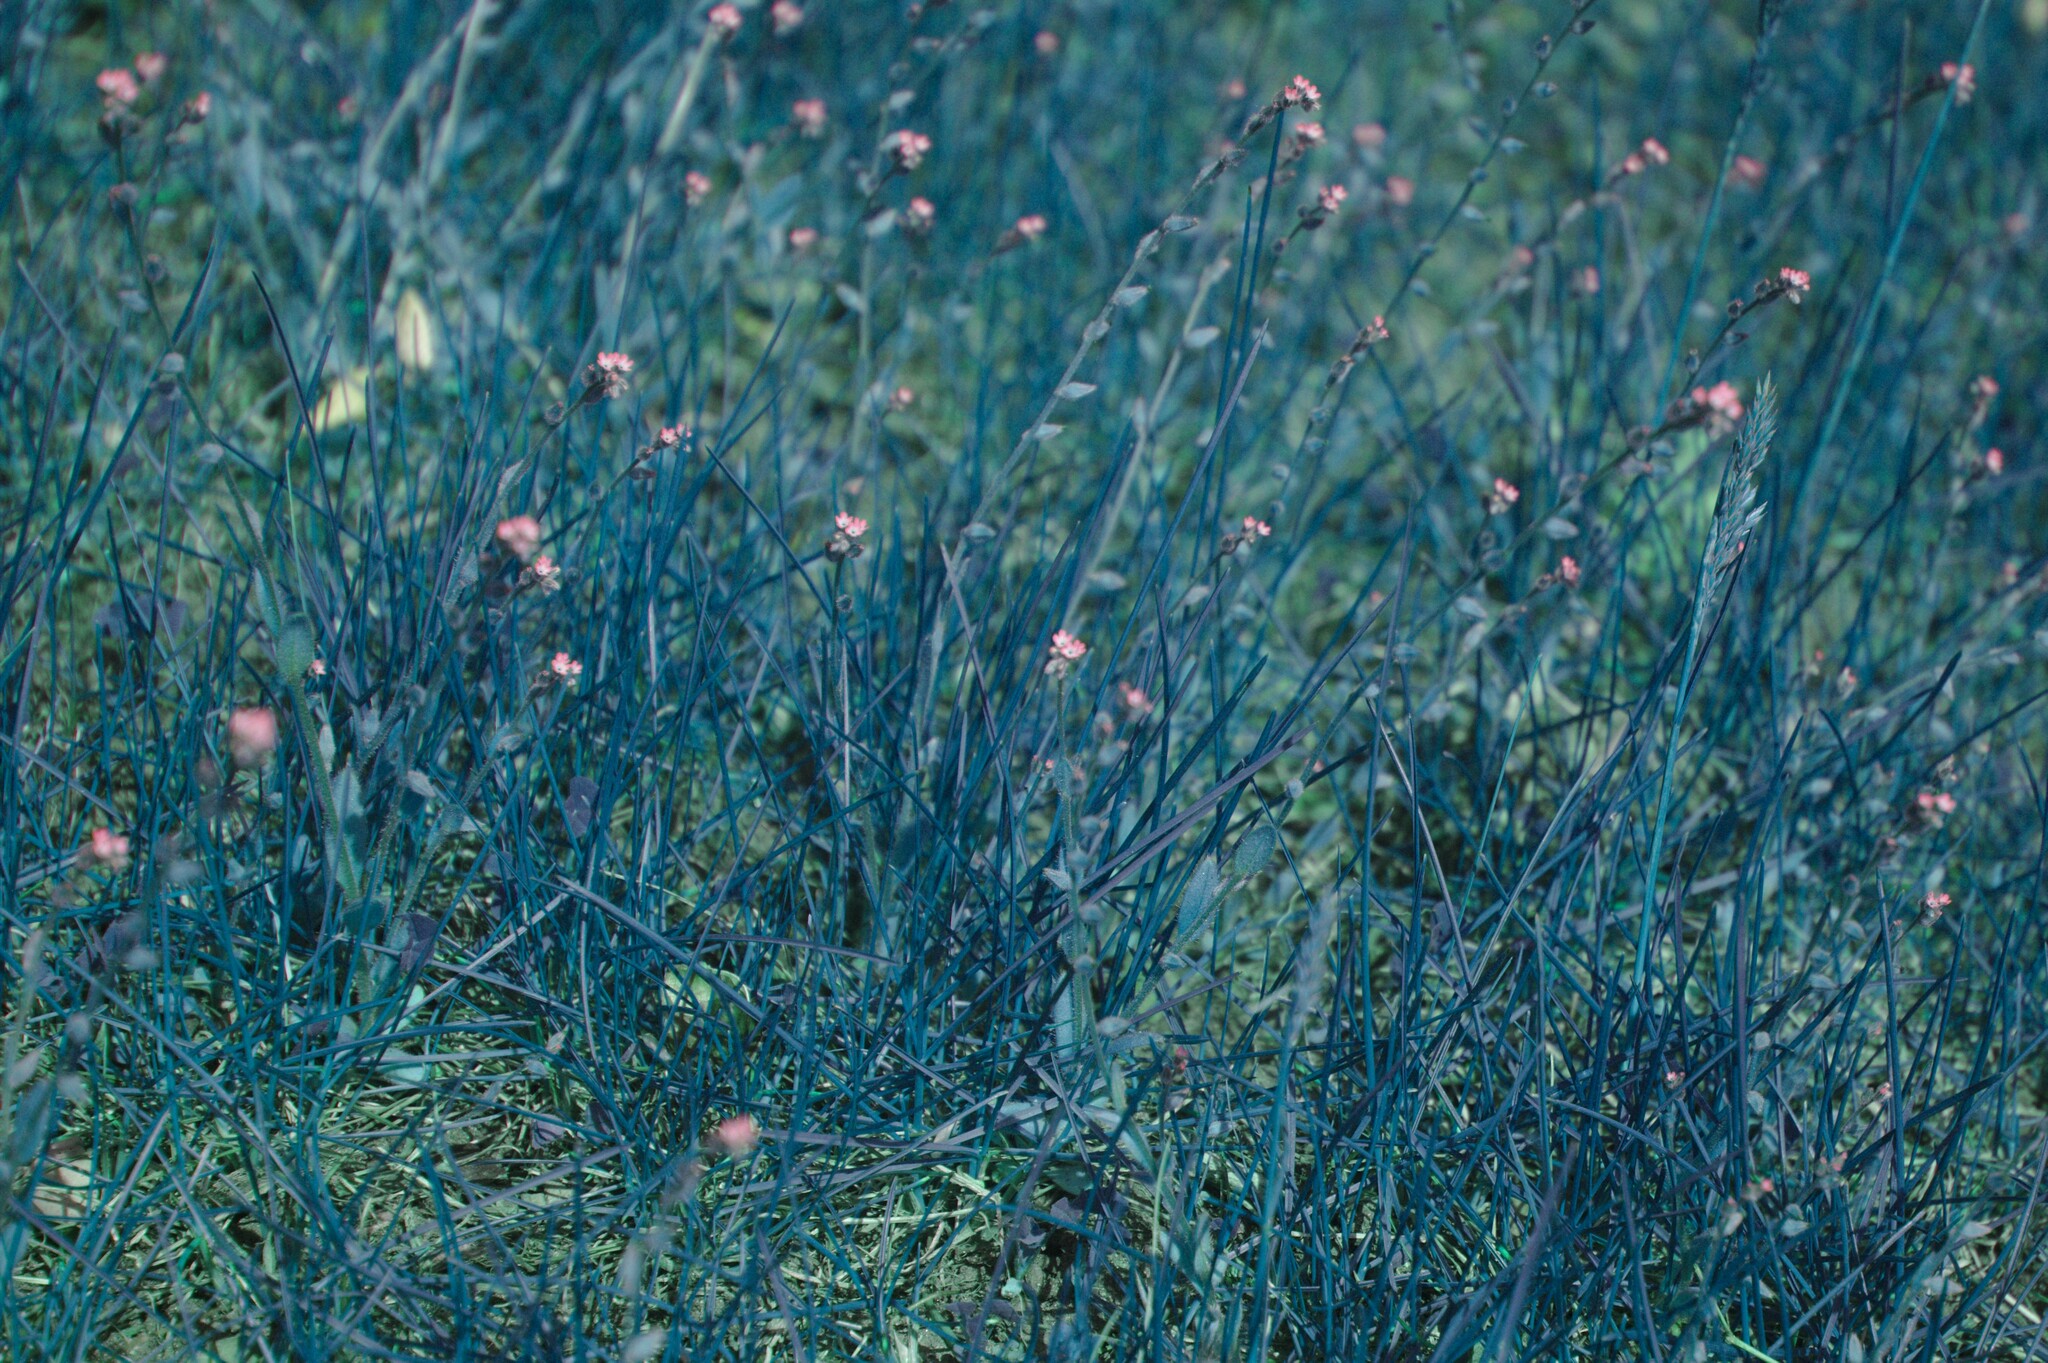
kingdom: Plantae
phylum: Tracheophyta
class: Magnoliopsida
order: Boraginales
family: Boraginaceae
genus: Myosotis
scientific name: Myosotis stricta
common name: Strict forget-me-not
